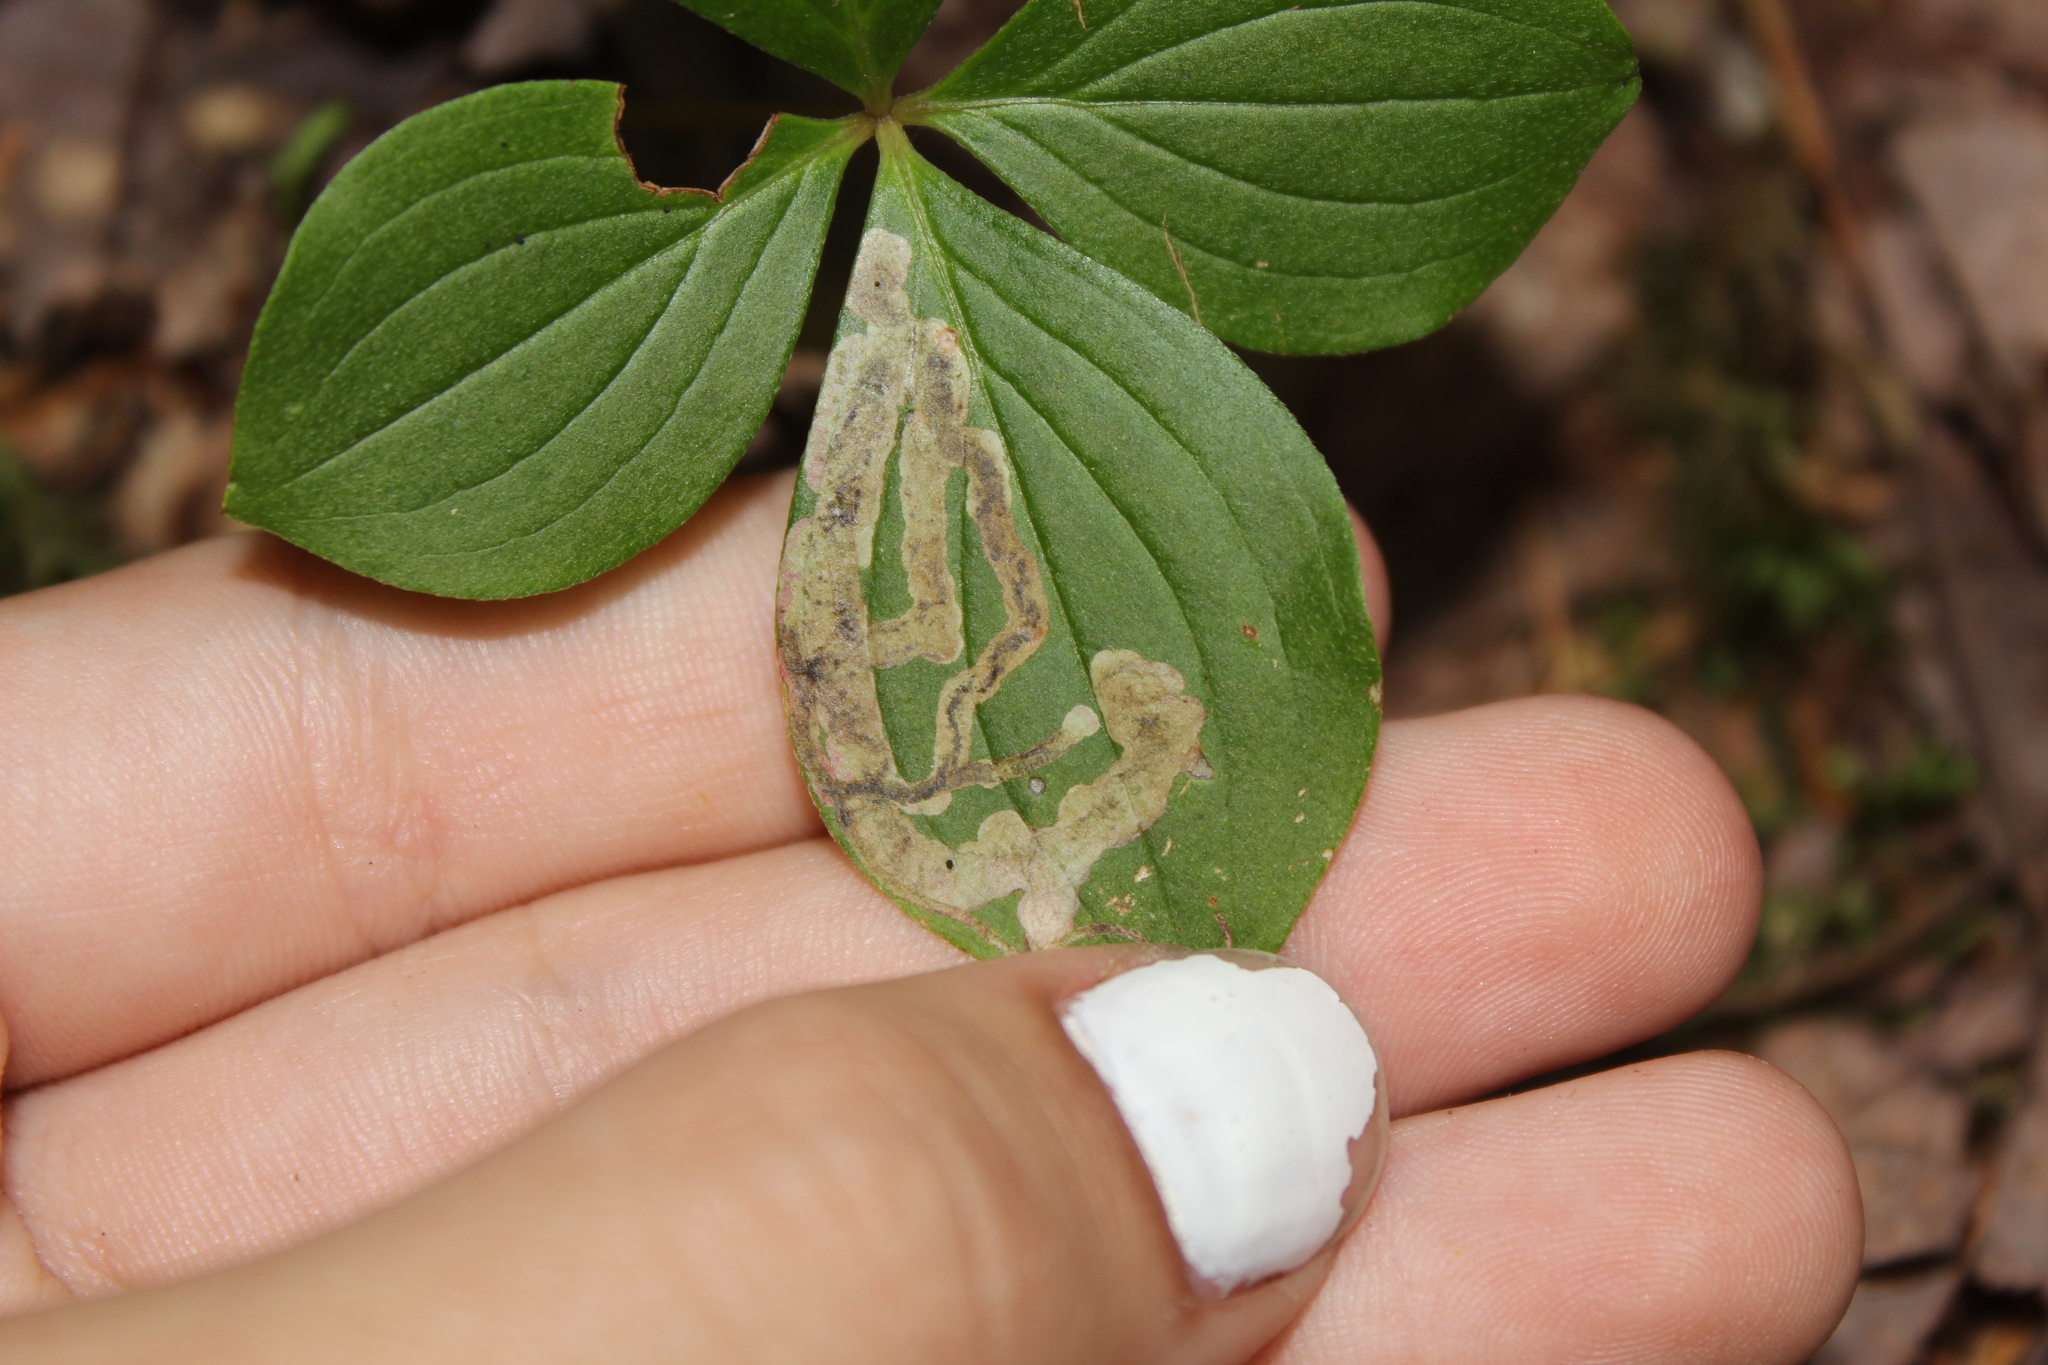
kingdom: Animalia
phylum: Arthropoda
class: Insecta
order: Diptera
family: Agromyzidae
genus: Phytomyza
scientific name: Phytomyza agromyzina
